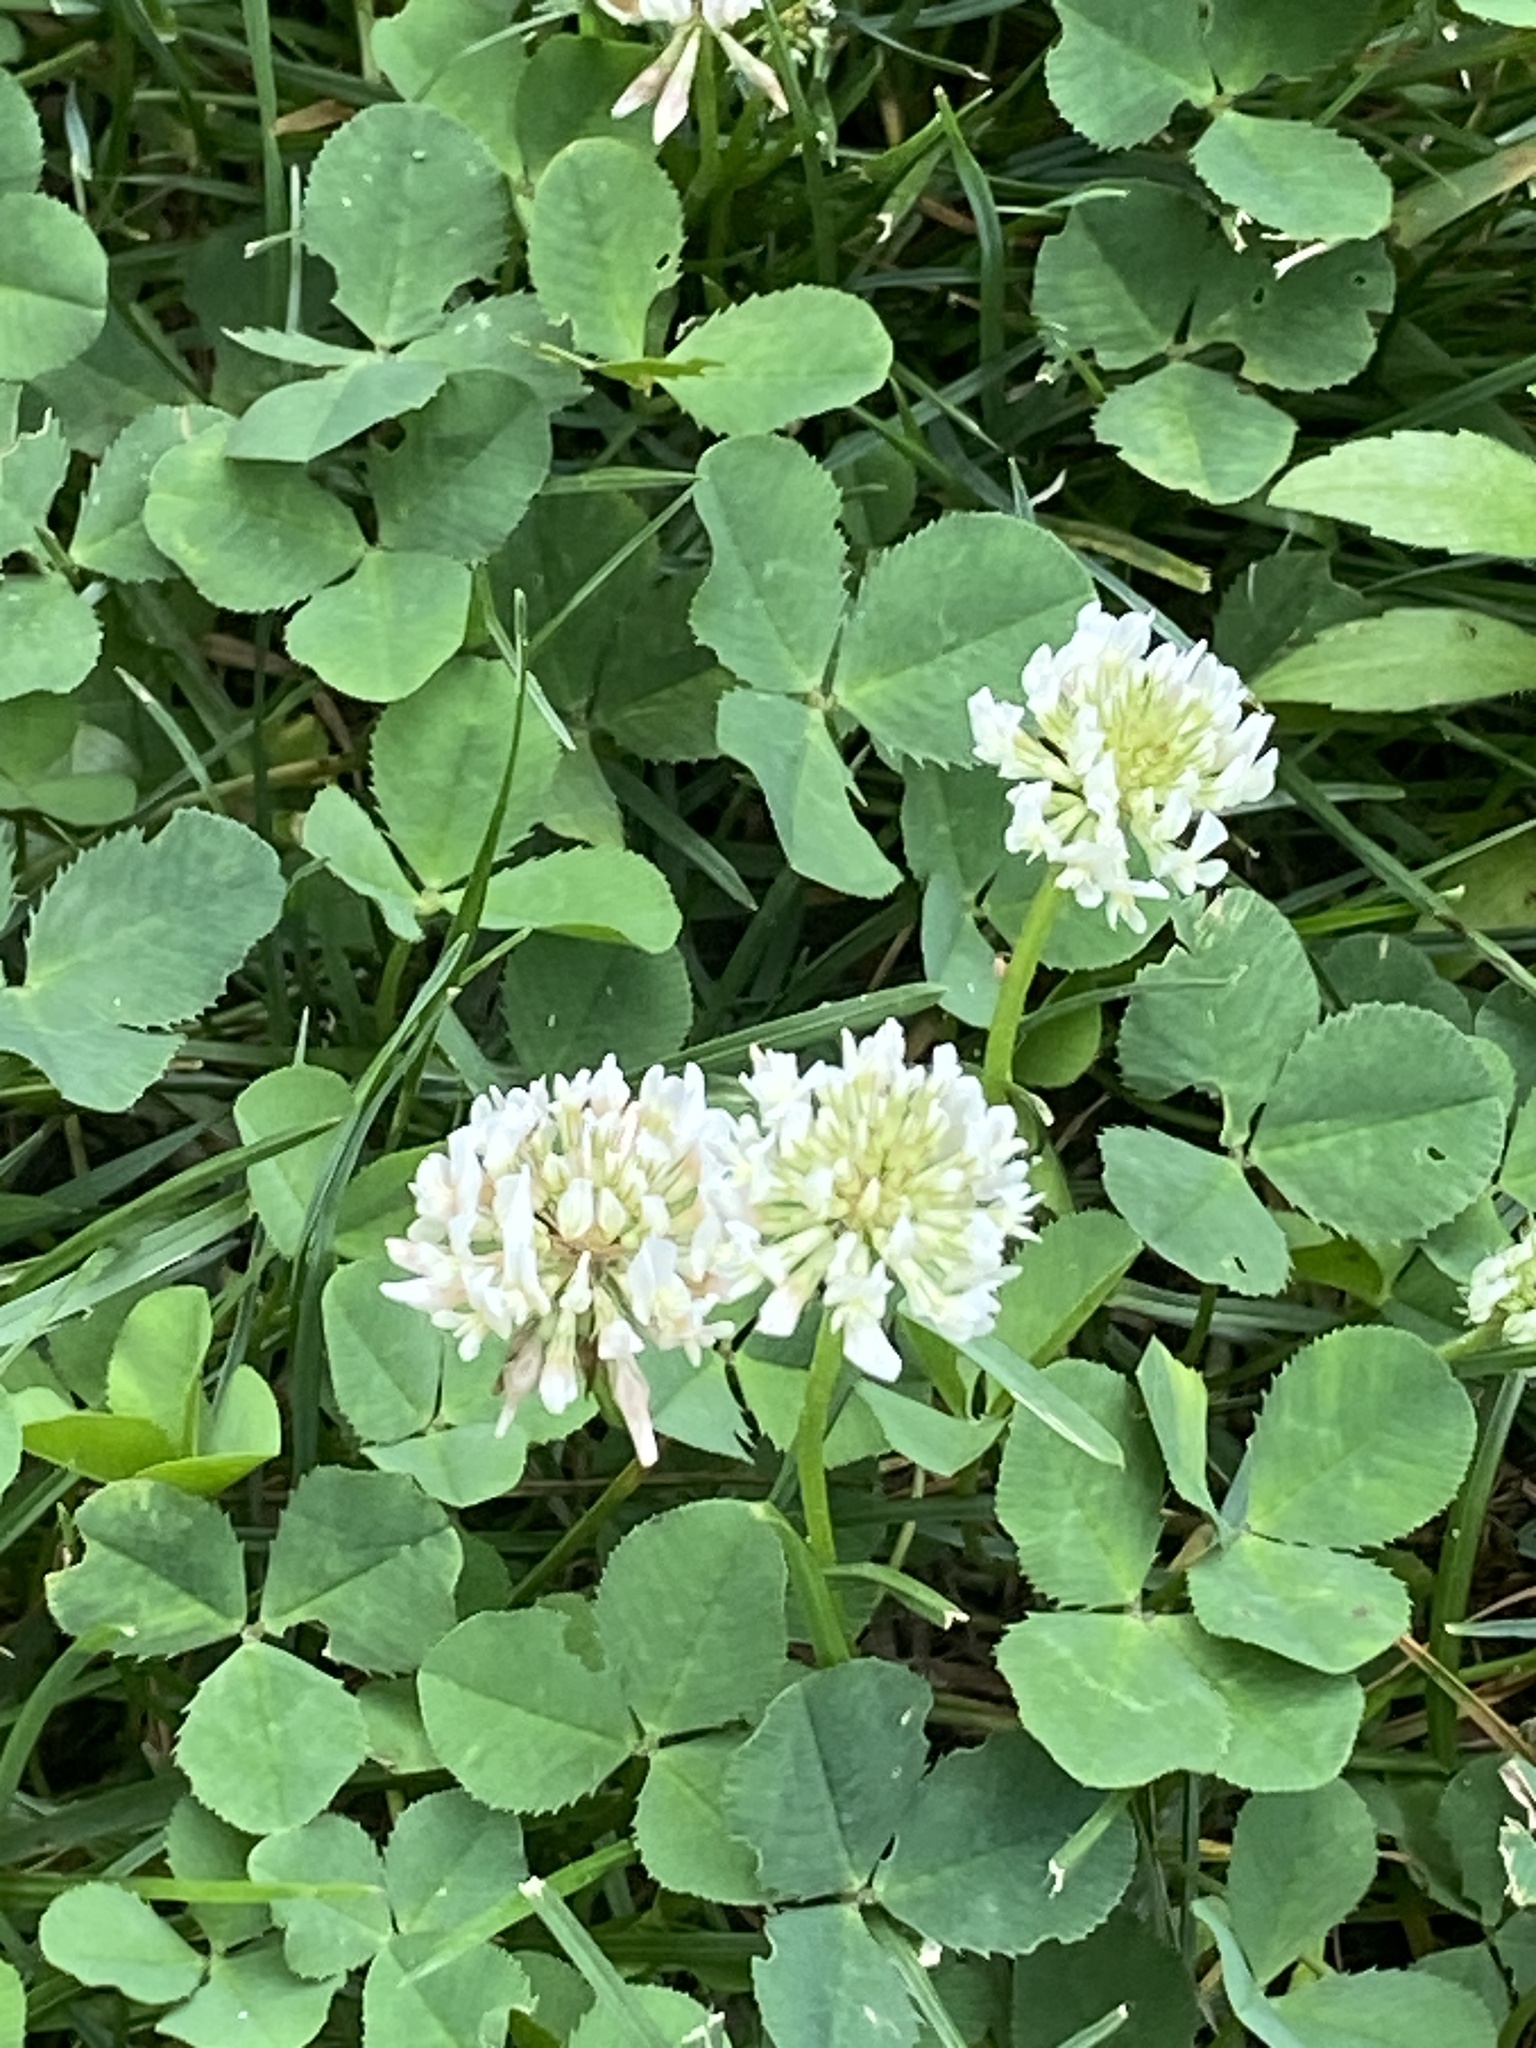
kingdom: Plantae
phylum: Tracheophyta
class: Magnoliopsida
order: Fabales
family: Fabaceae
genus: Trifolium
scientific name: Trifolium repens
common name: White clover
